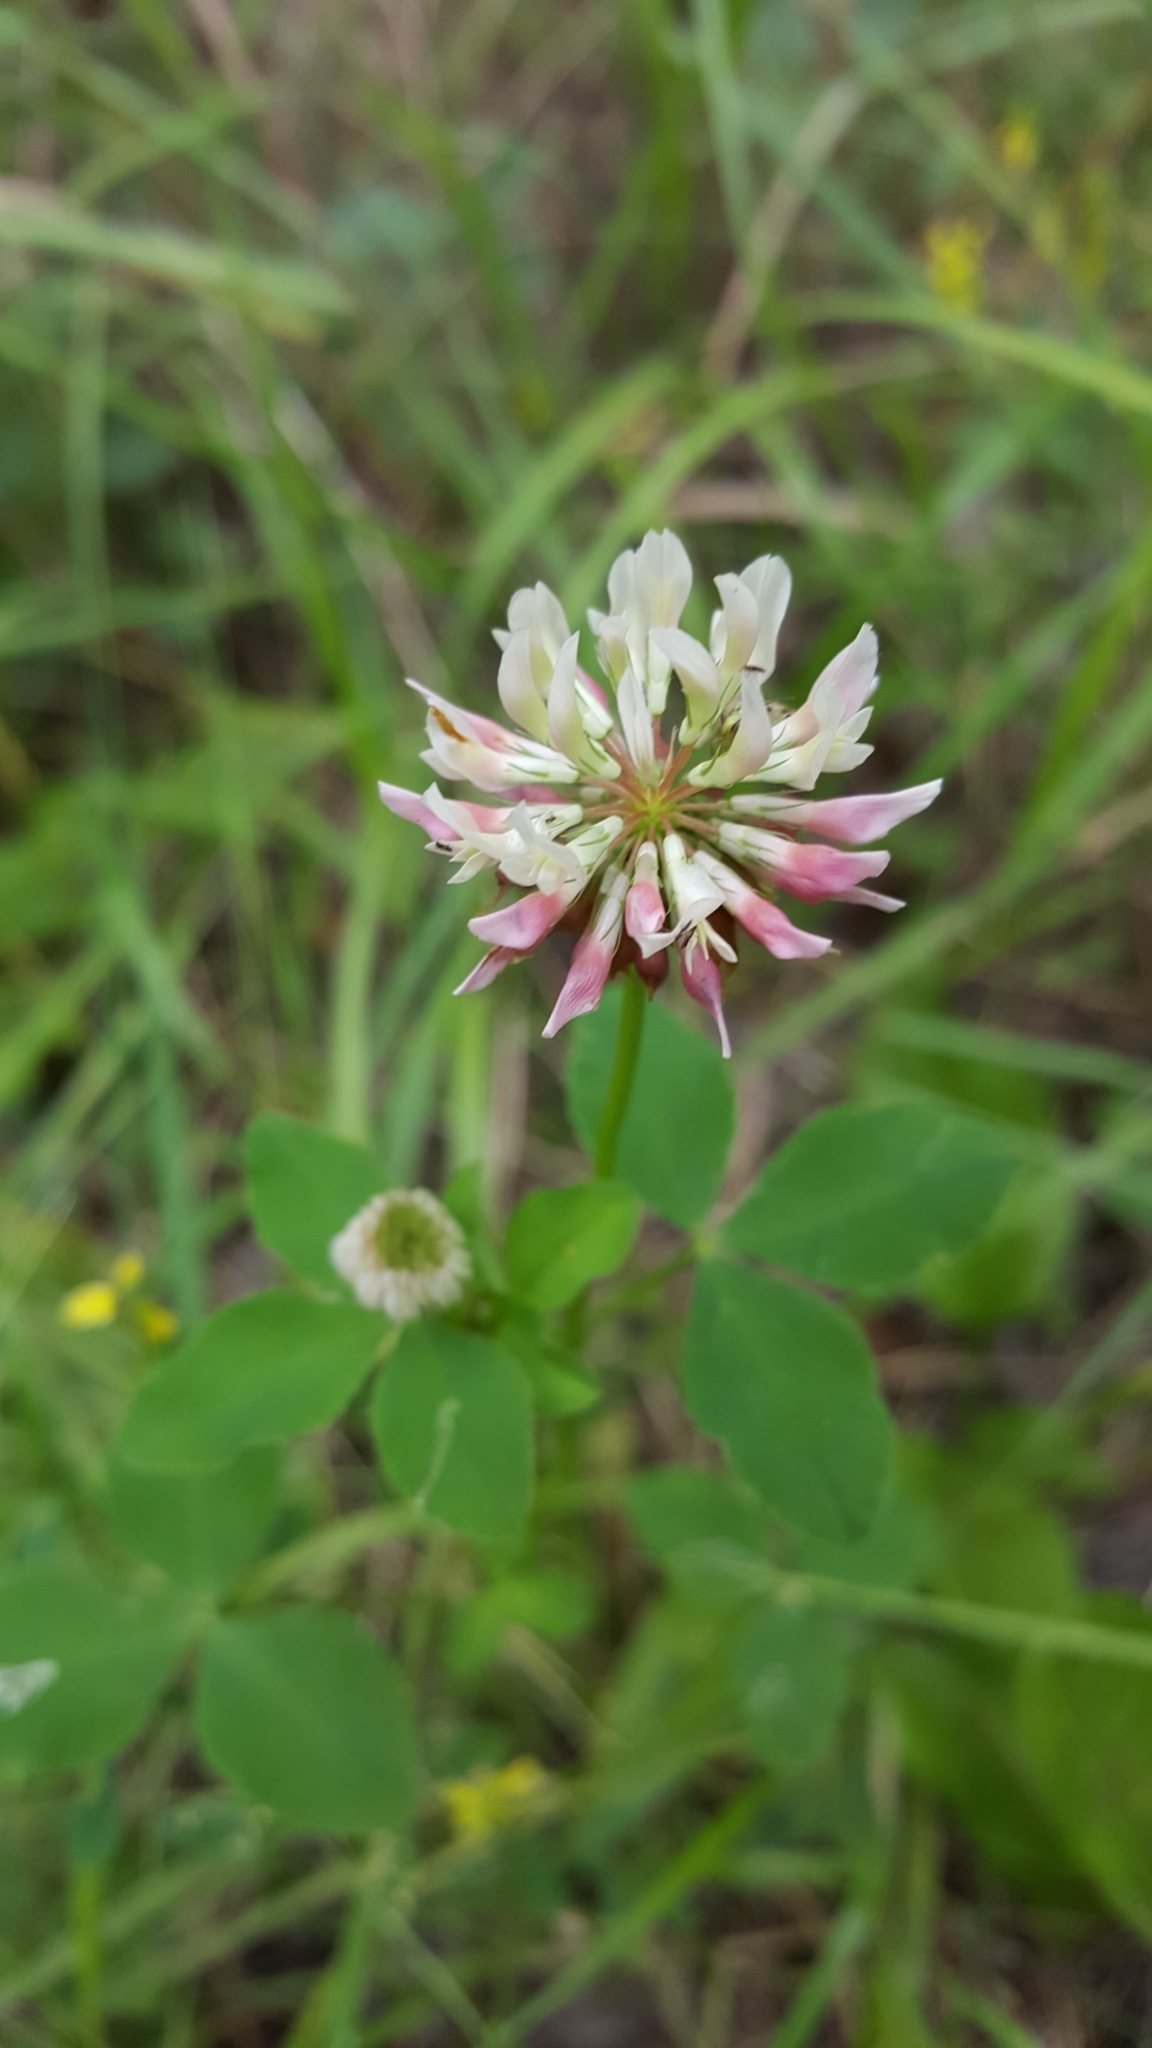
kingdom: Plantae
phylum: Tracheophyta
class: Magnoliopsida
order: Fabales
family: Fabaceae
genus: Trifolium
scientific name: Trifolium hybridum
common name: Alsike clover
